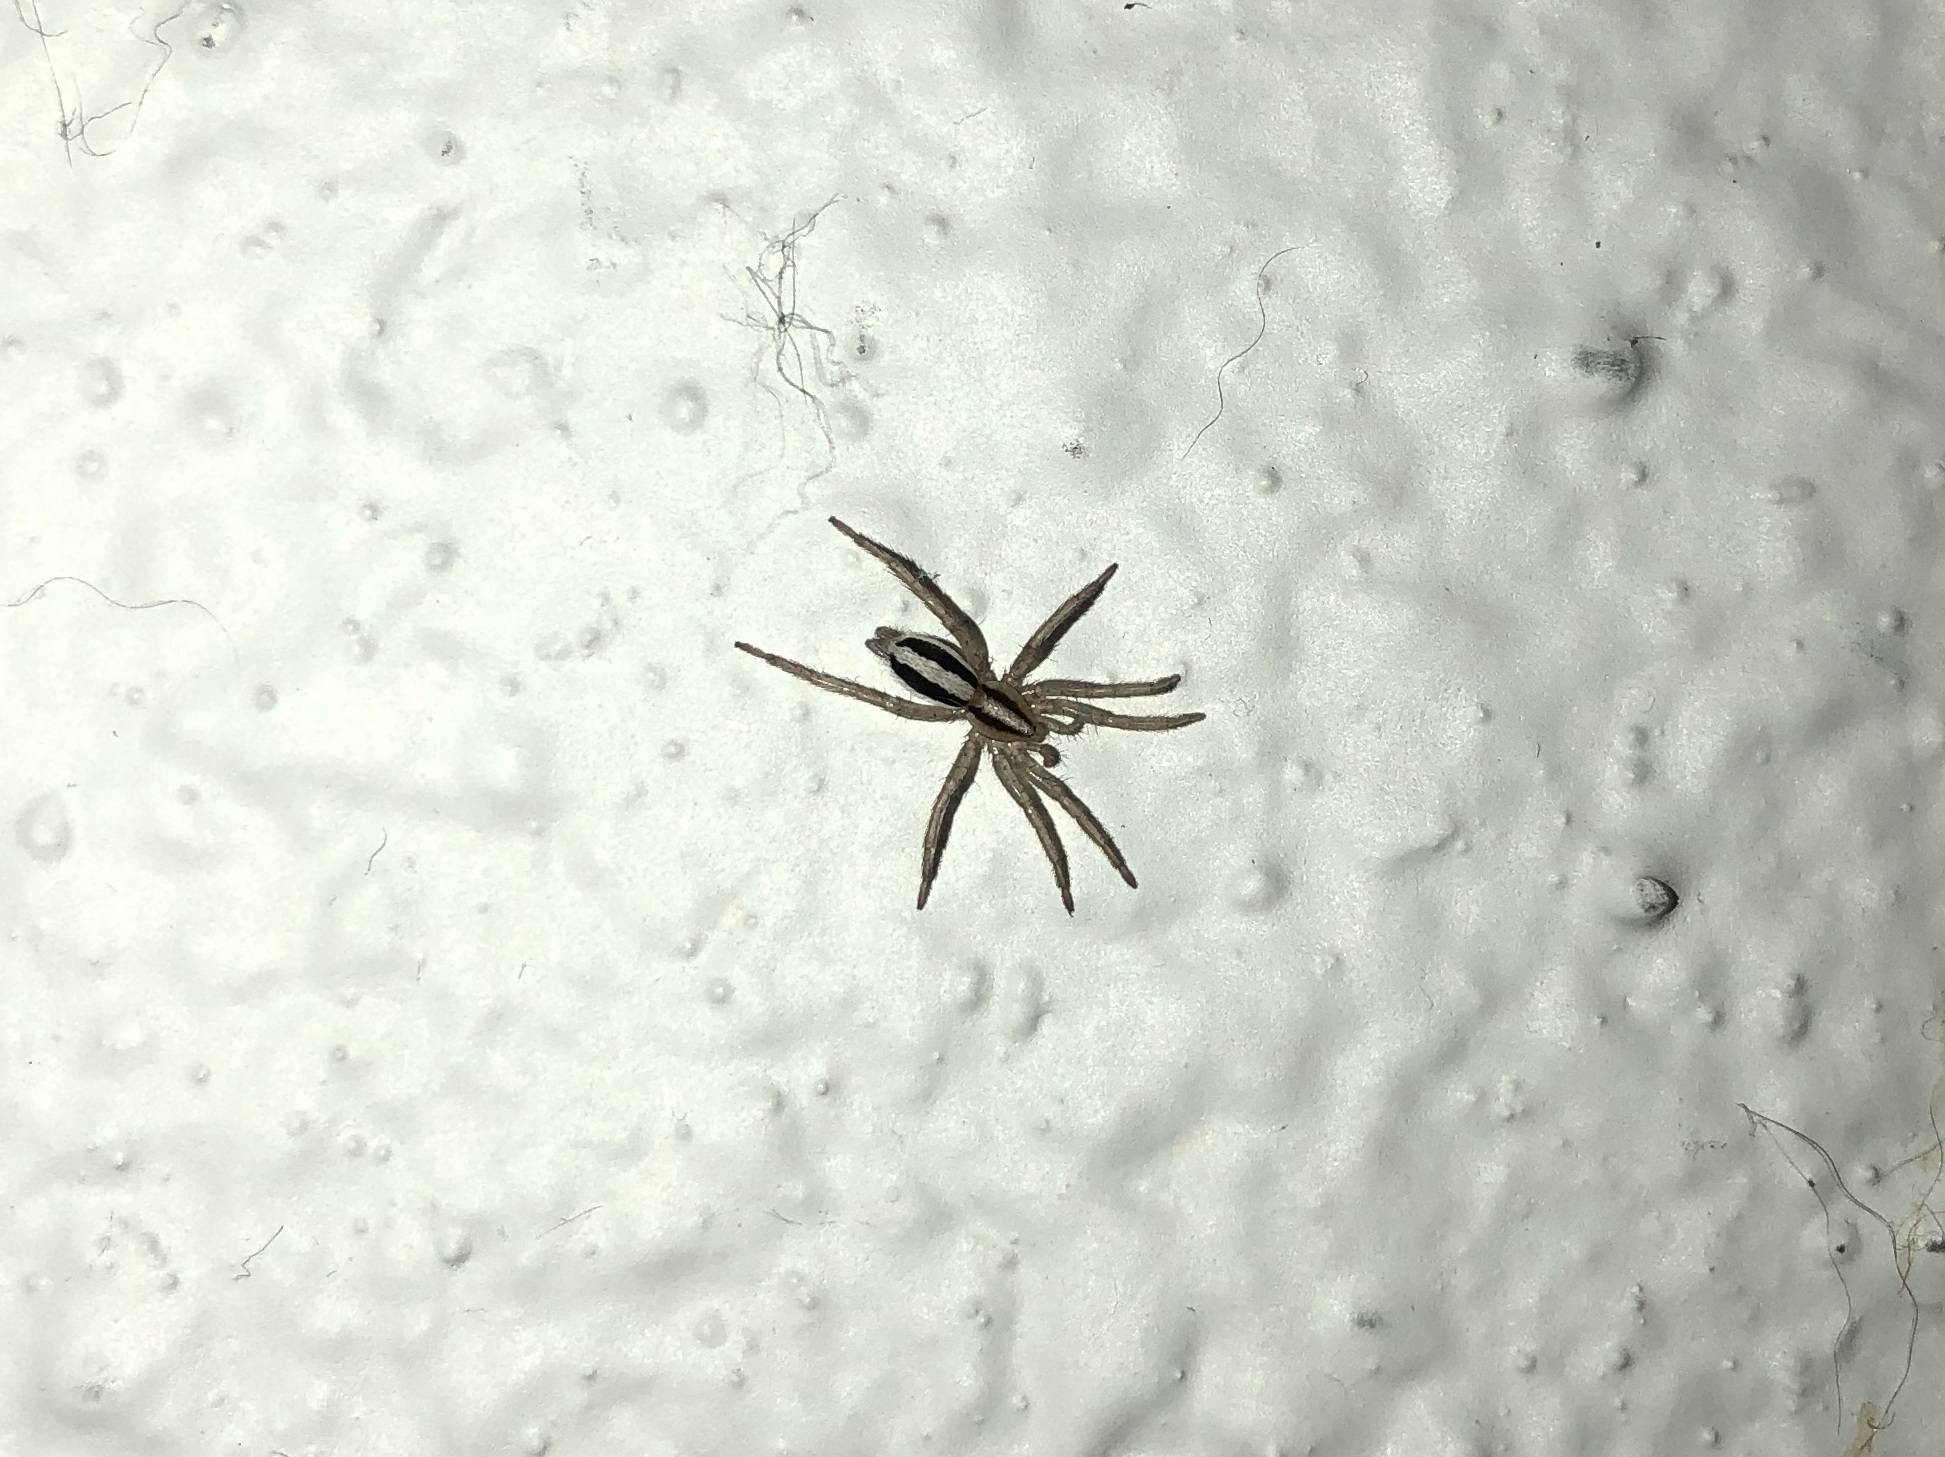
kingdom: Animalia
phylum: Arthropoda
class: Arachnida
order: Araneae
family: Gnaphosidae
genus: Cesonia
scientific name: Cesonia bilineata
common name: Two-lined stealthy ground spider
